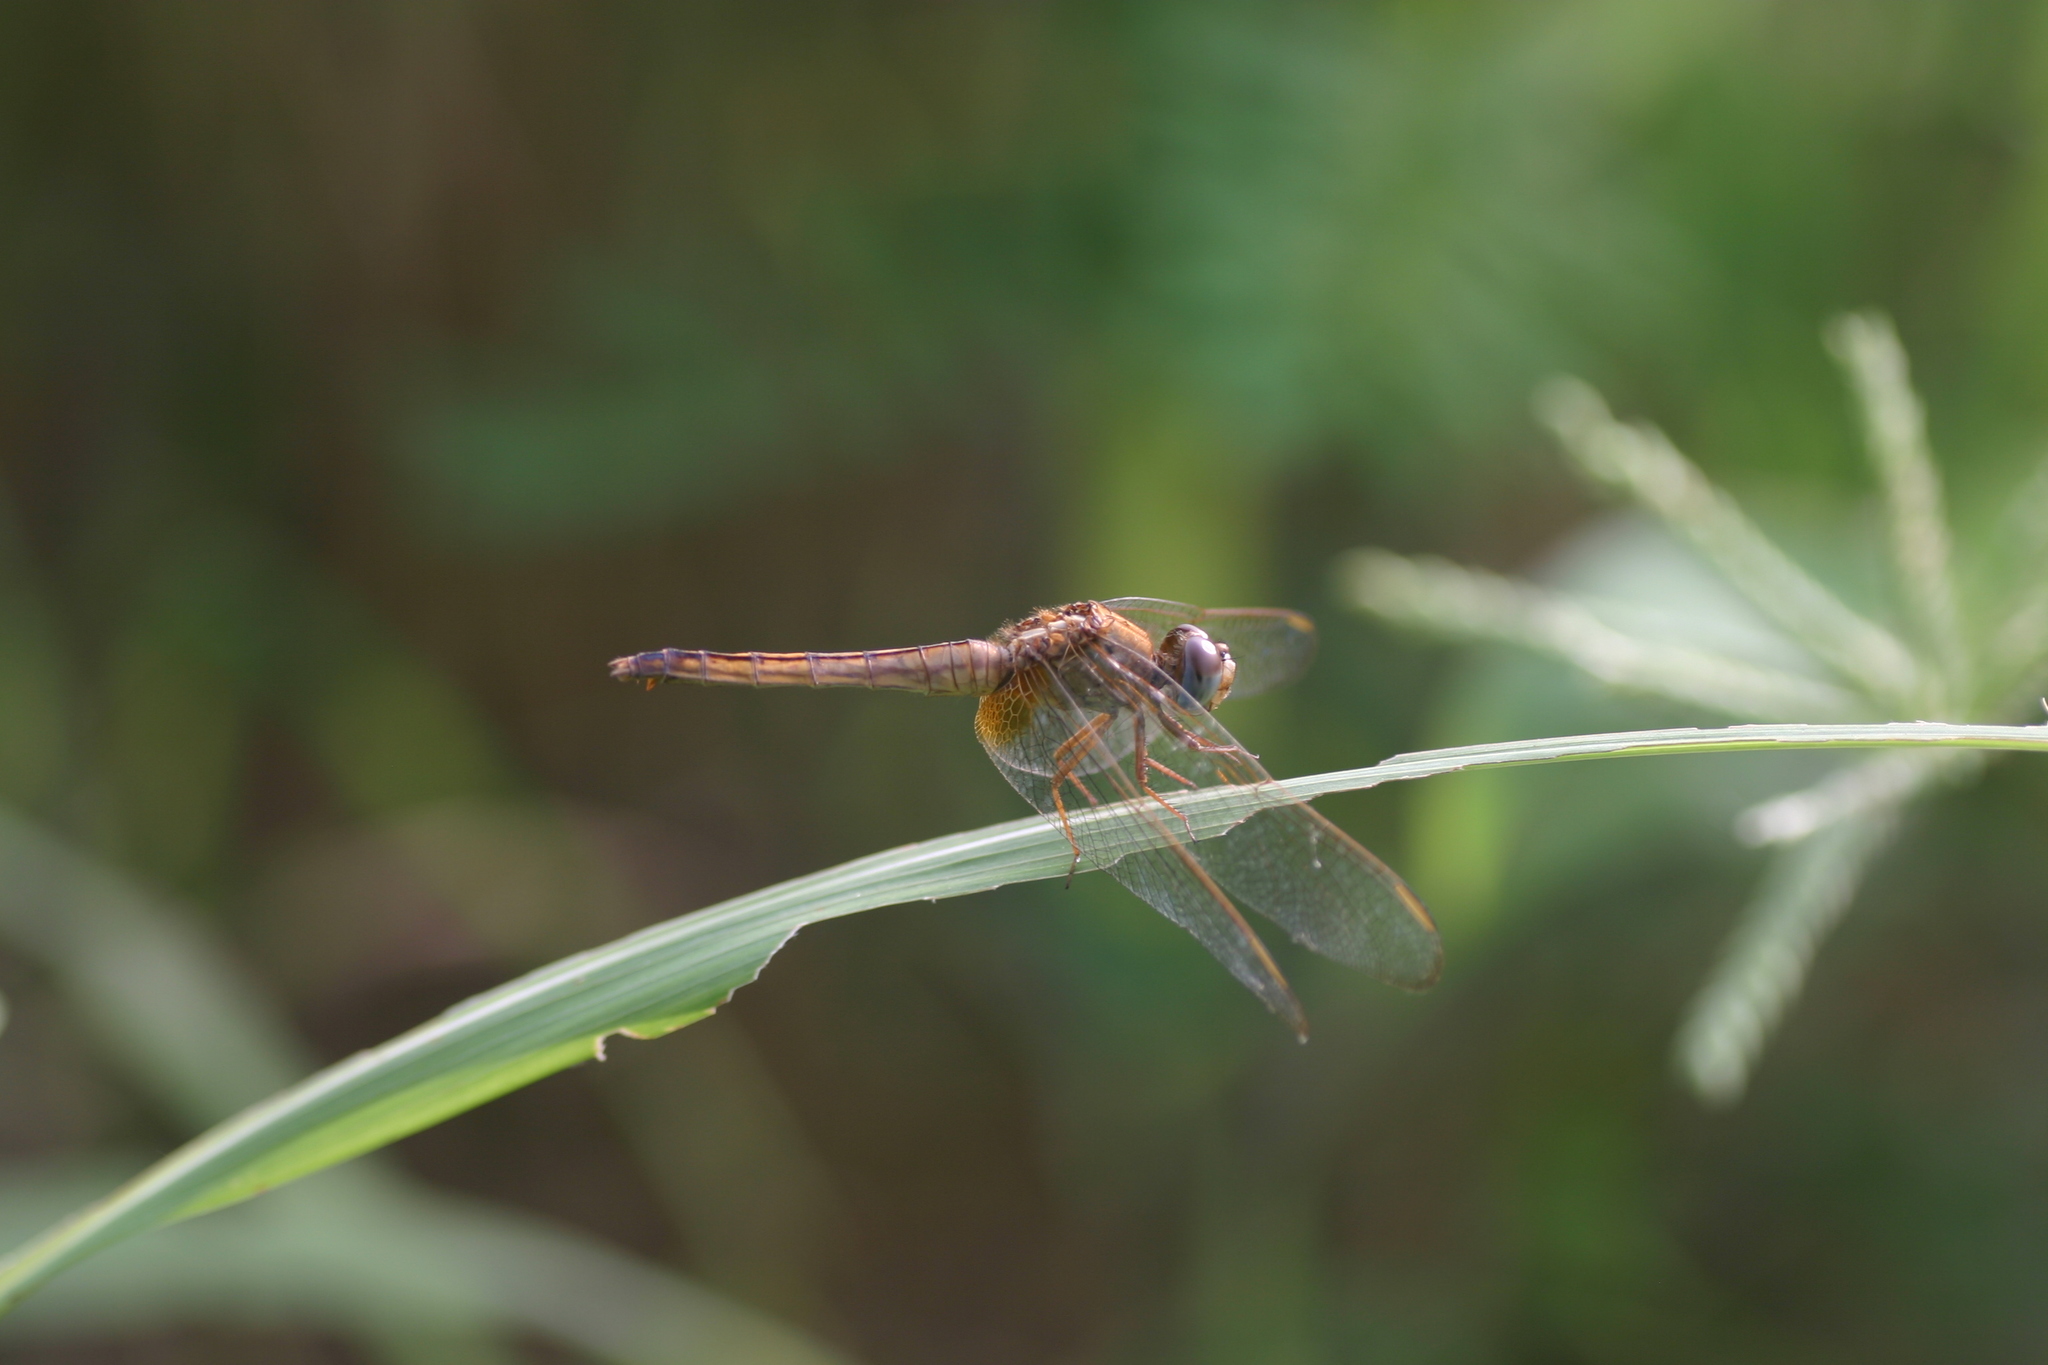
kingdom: Animalia
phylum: Arthropoda
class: Insecta
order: Odonata
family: Libellulidae
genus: Crocothemis
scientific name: Crocothemis servilia
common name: Scarlet skimmer
